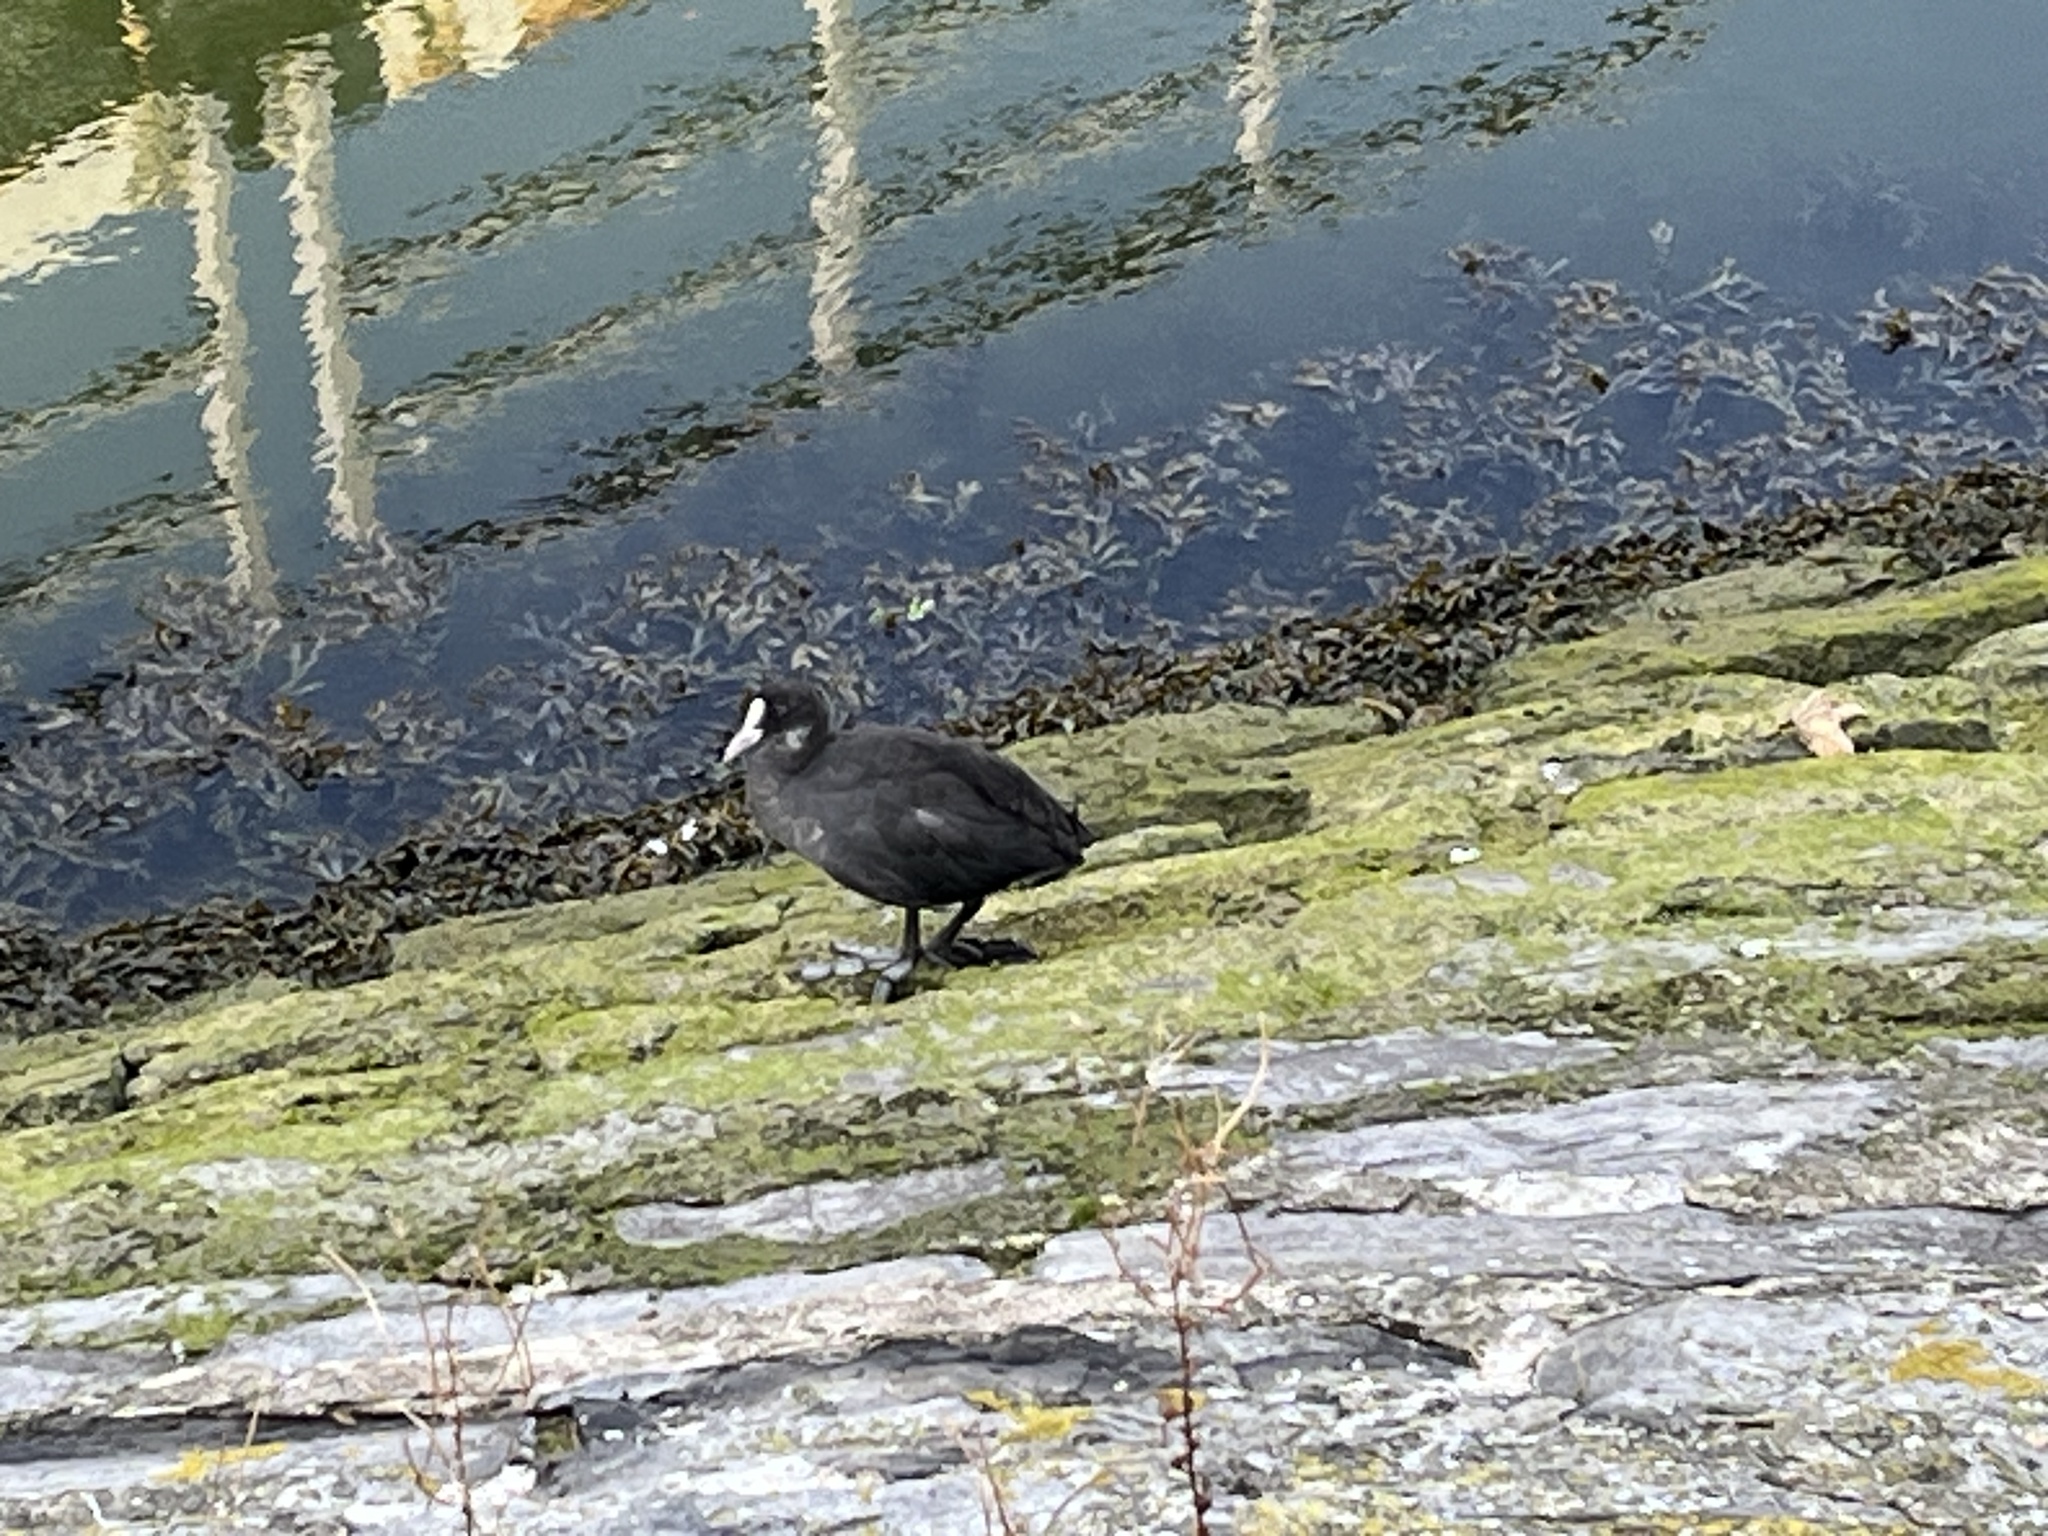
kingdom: Animalia
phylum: Chordata
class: Aves
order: Gruiformes
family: Rallidae
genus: Fulica
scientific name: Fulica atra
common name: Eurasian coot
